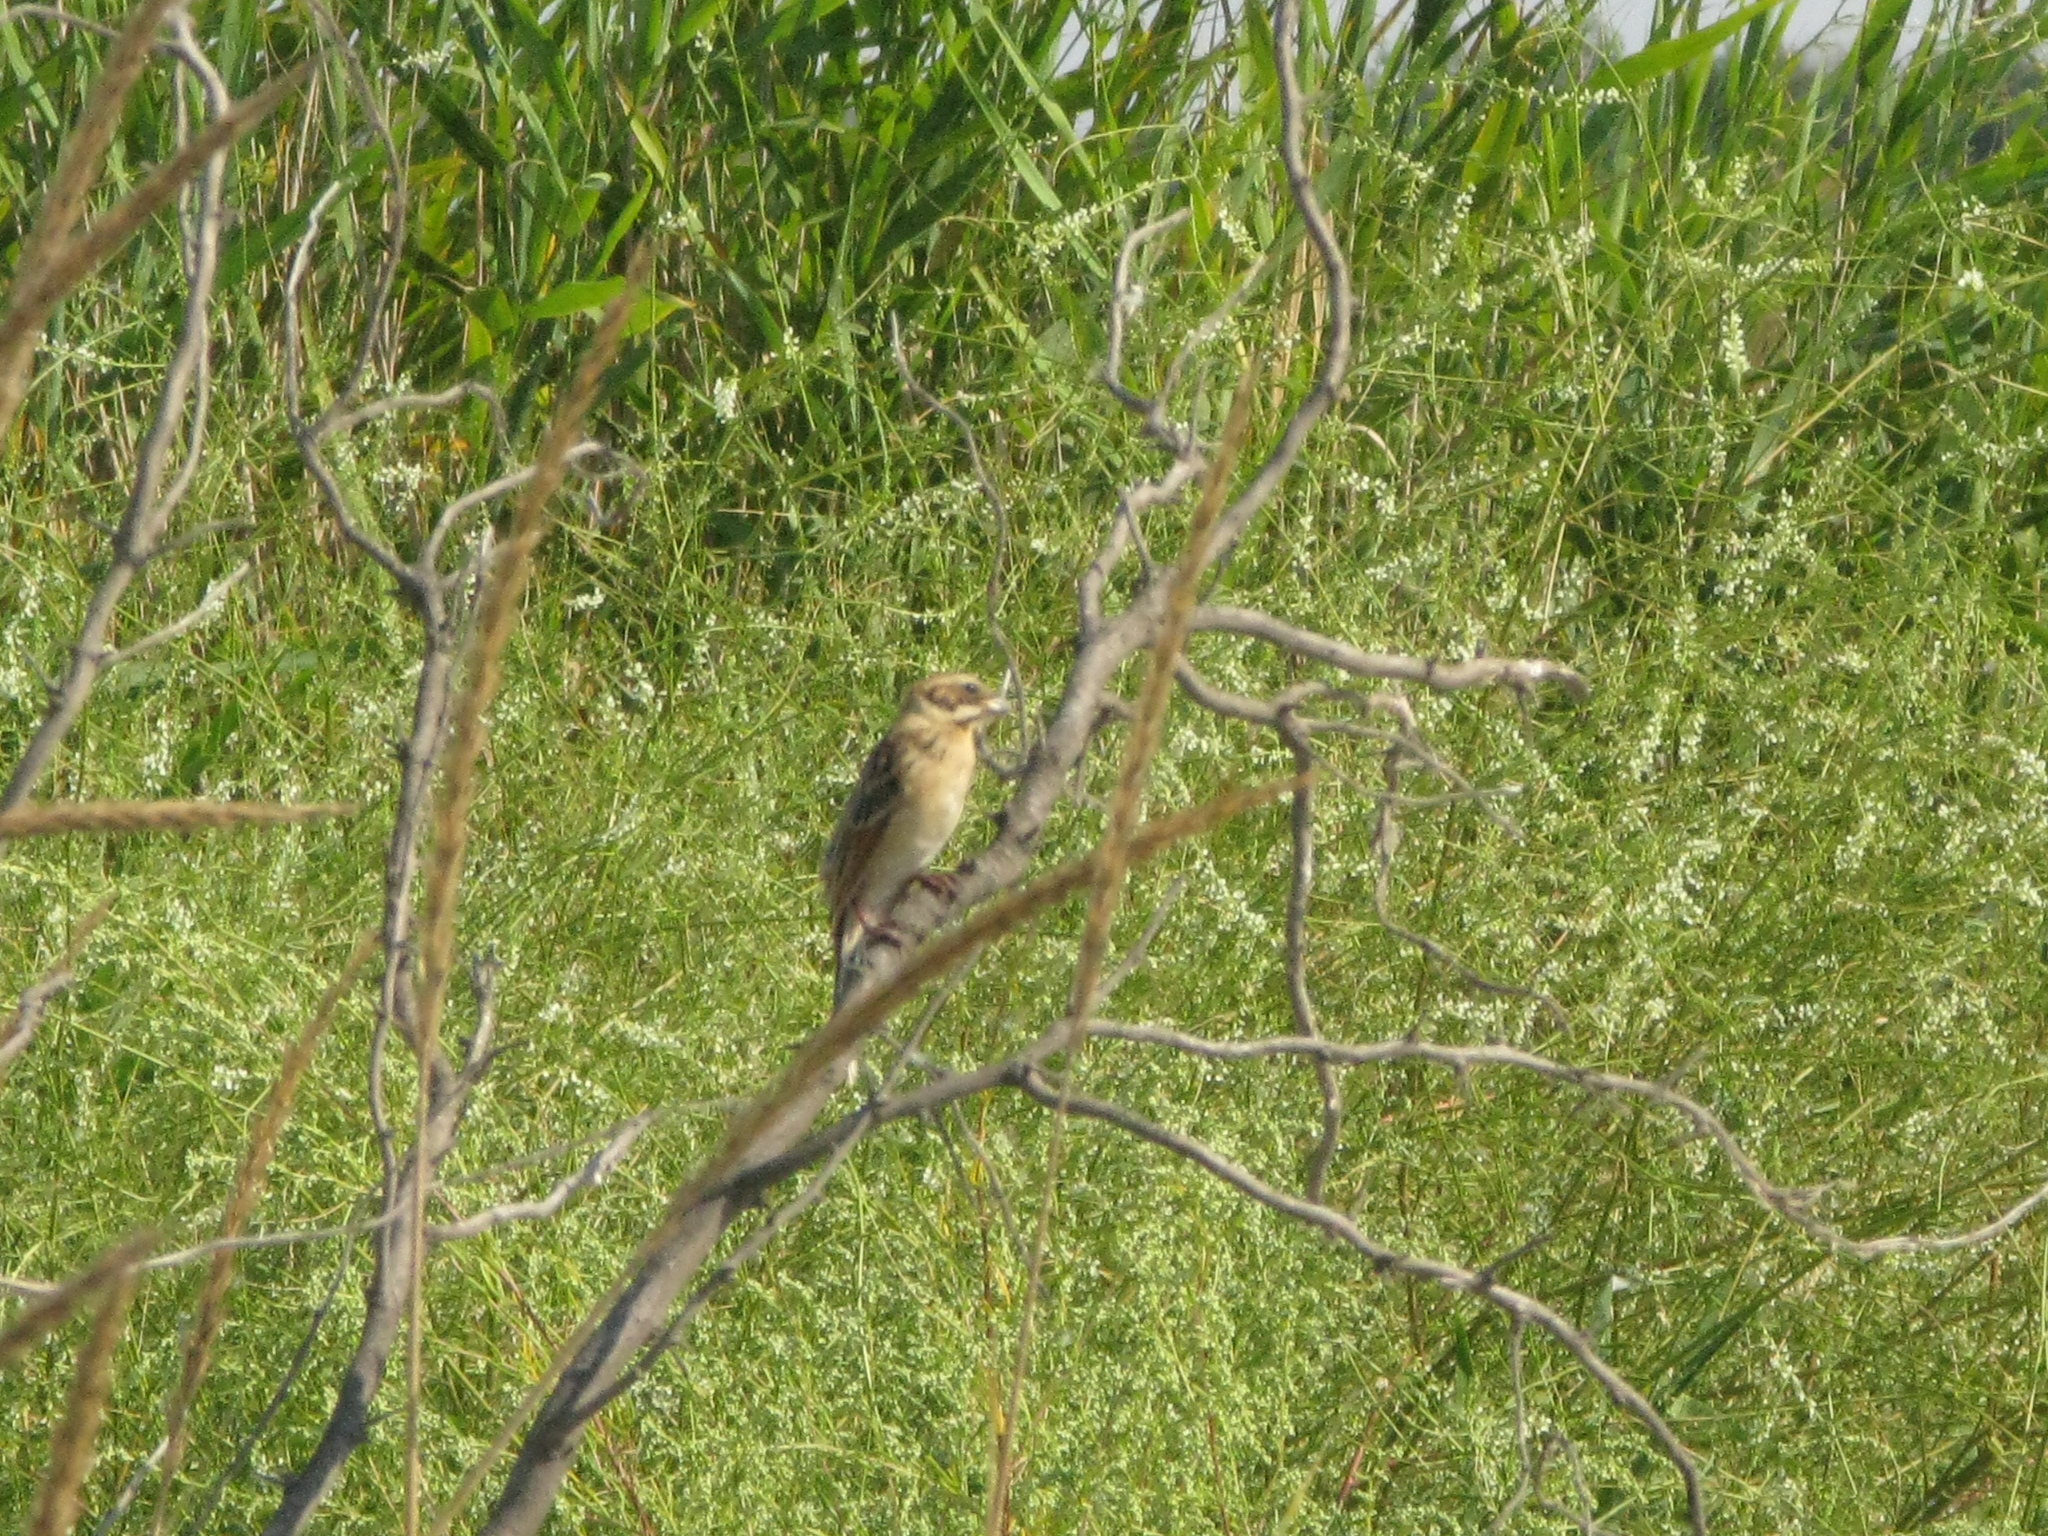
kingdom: Animalia
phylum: Chordata
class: Aves
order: Passeriformes
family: Emberizidae
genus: Emberiza
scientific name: Emberiza schoeniclus
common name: Reed bunting
